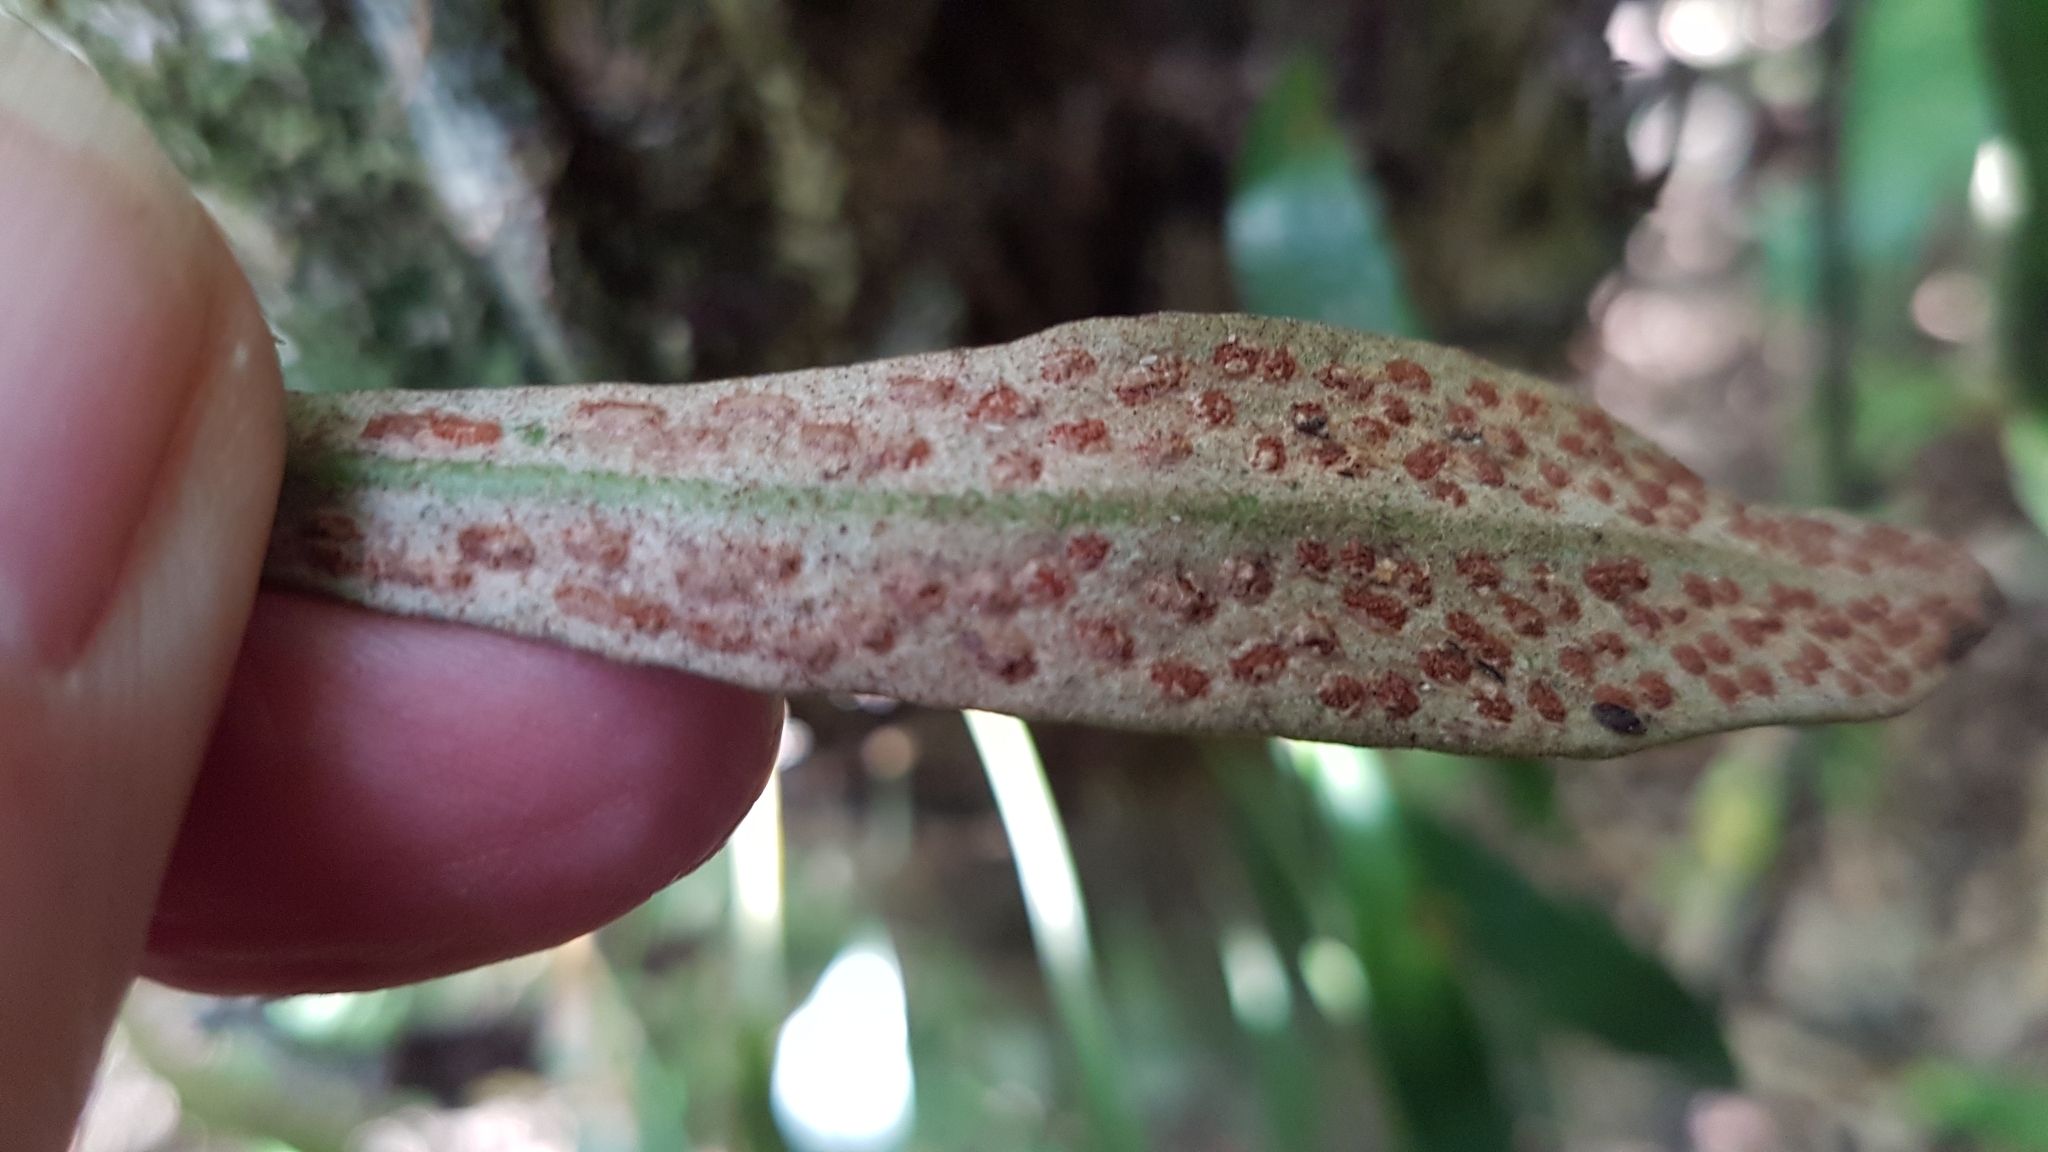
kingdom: Plantae
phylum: Tracheophyta
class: Polypodiopsida
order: Polypodiales
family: Polypodiaceae
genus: Pyrrosia
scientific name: Pyrrosia eleagnifolia
